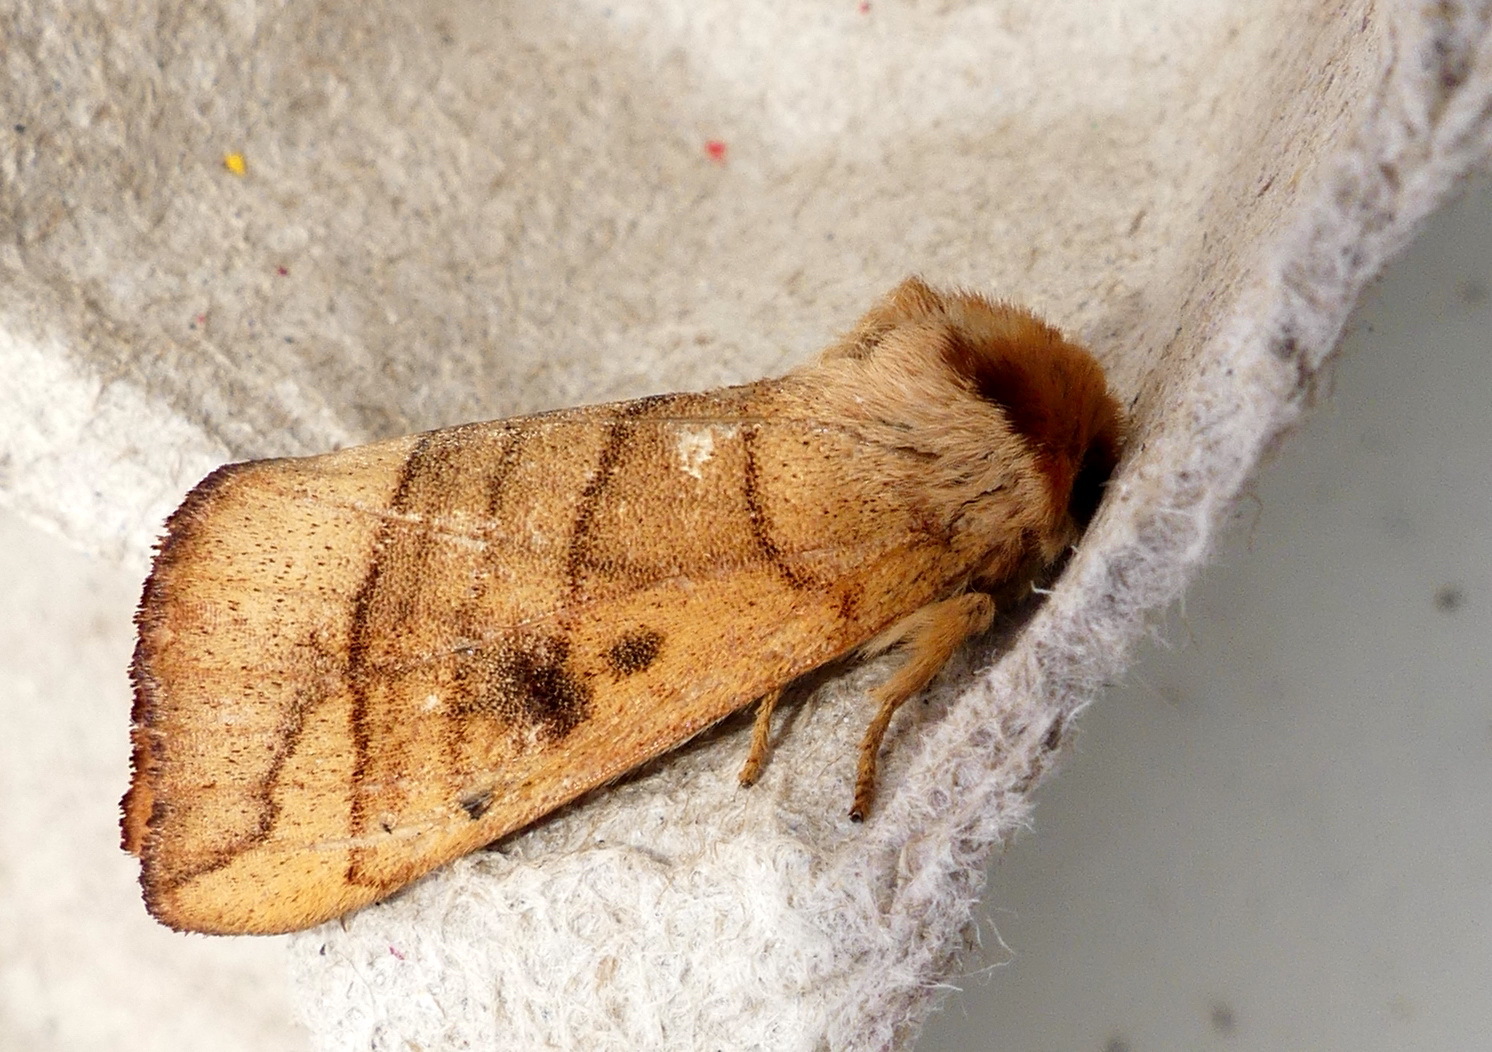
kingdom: Animalia
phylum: Arthropoda
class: Insecta
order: Lepidoptera
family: Notodontidae
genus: Datana
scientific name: Datana perspicua
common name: Spotted datana
